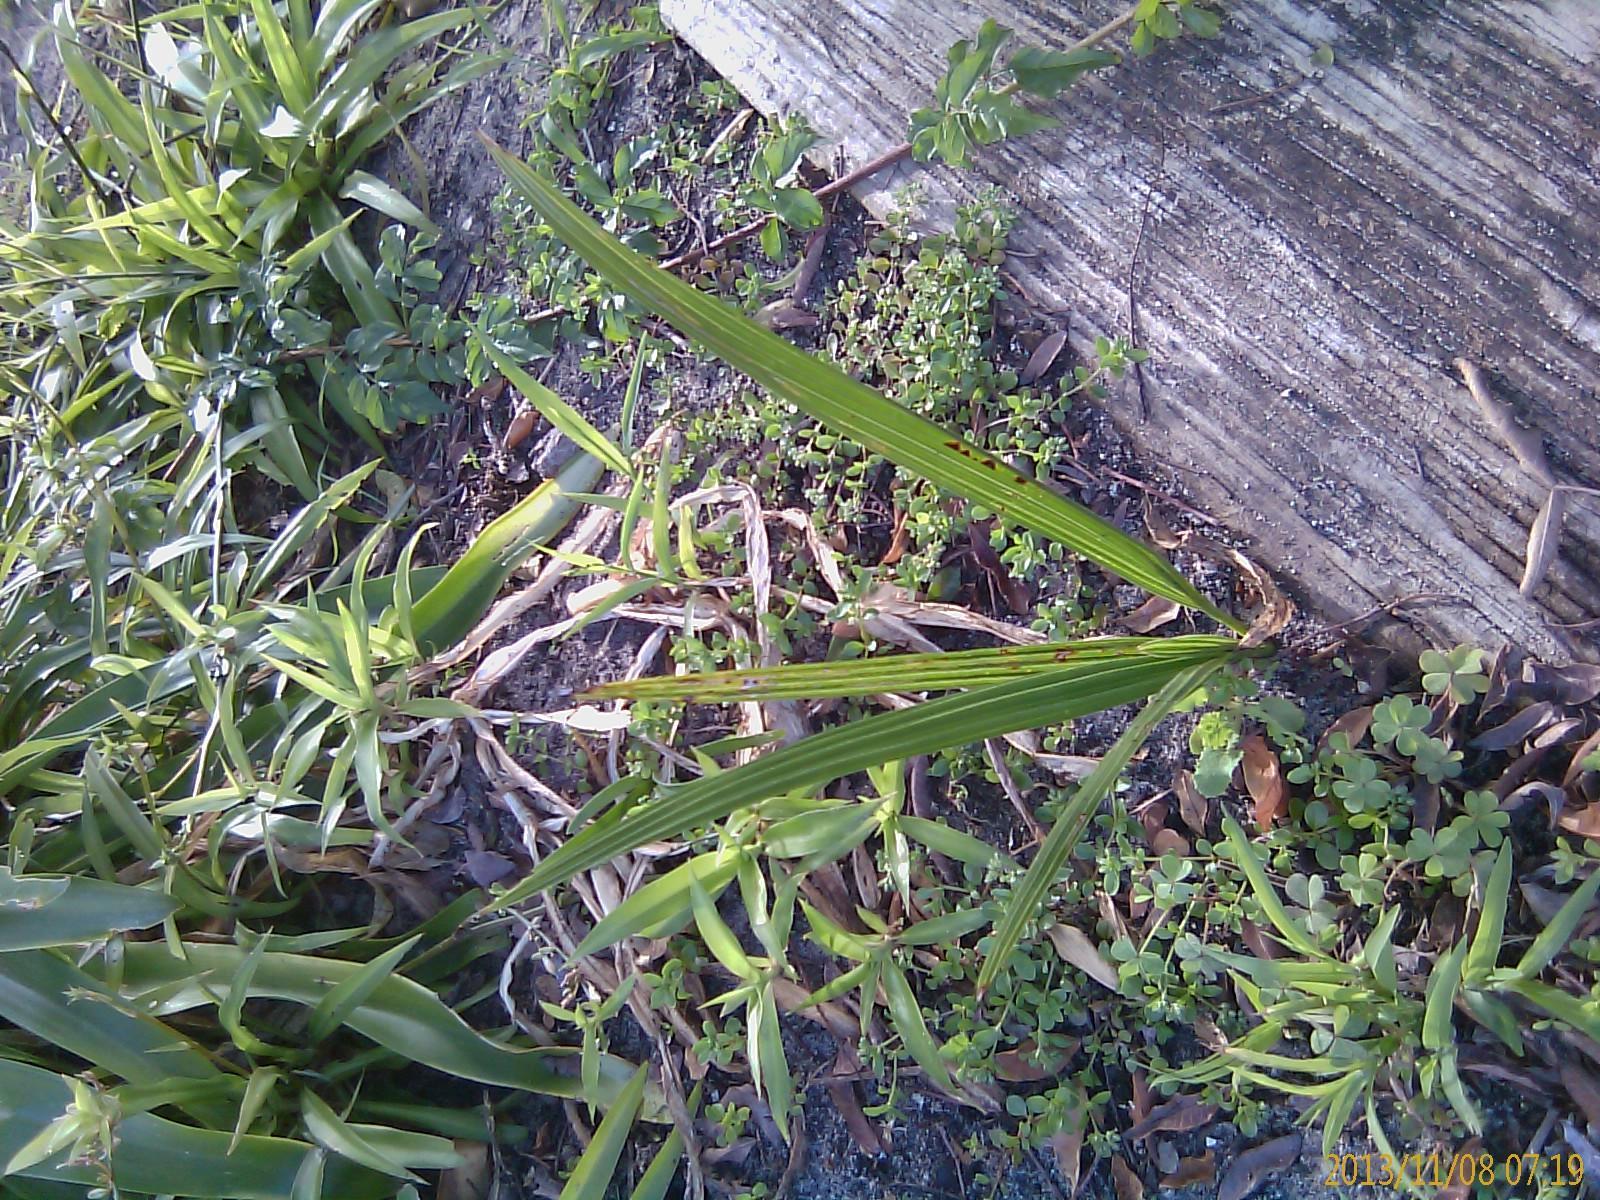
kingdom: Plantae
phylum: Tracheophyta
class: Liliopsida
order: Arecales
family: Arecaceae
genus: Phoenix
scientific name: Phoenix canariensis
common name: Canary island date palm
